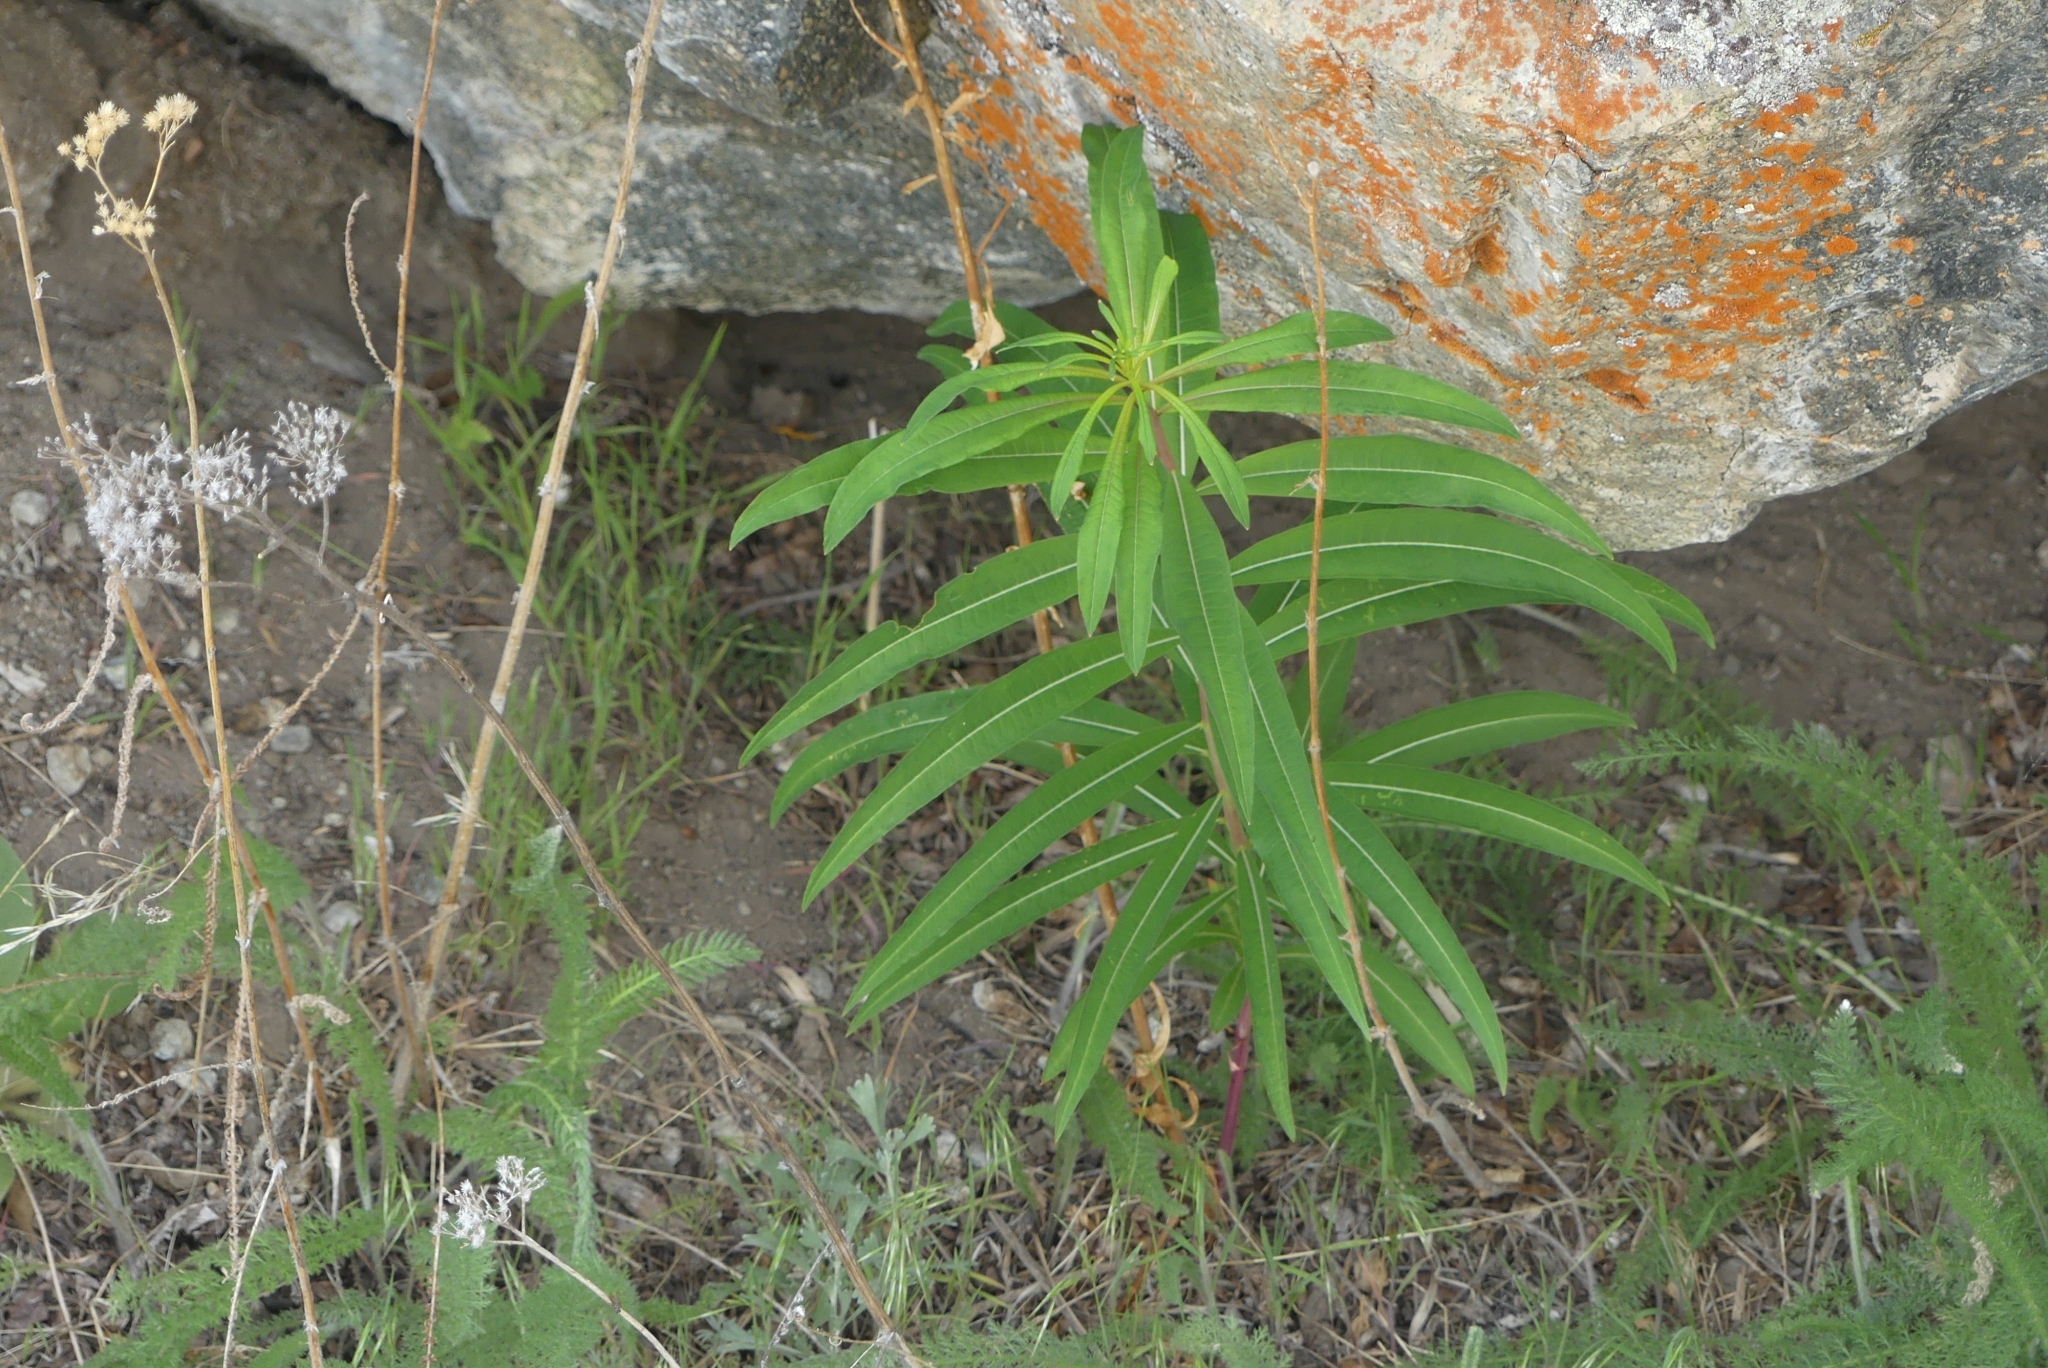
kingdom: Plantae
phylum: Tracheophyta
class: Magnoliopsida
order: Myrtales
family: Onagraceae
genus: Chamaenerion
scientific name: Chamaenerion angustifolium
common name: Fireweed
